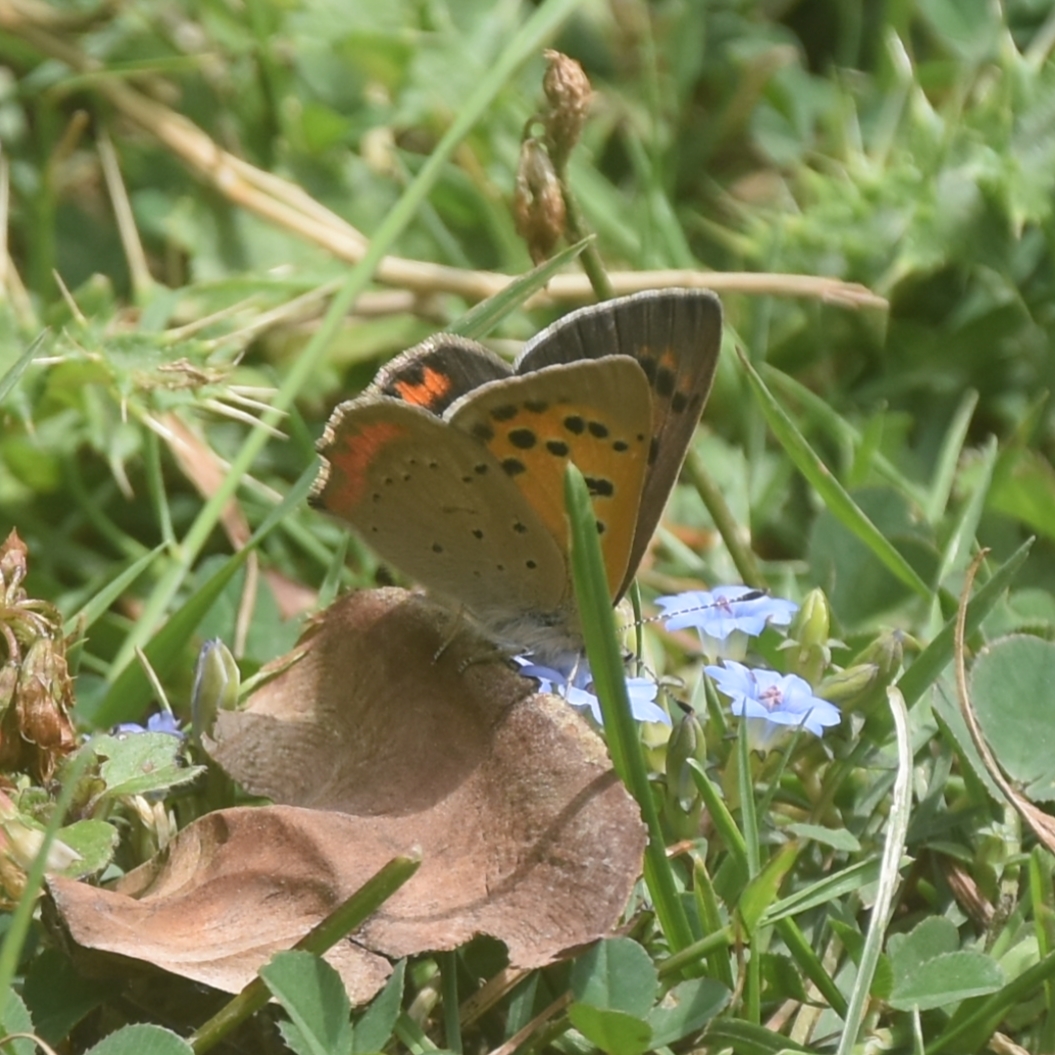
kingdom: Animalia
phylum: Arthropoda
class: Insecta
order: Lepidoptera
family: Lycaenidae
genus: Lycaena
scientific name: Lycaena phlaeas
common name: Small copper
